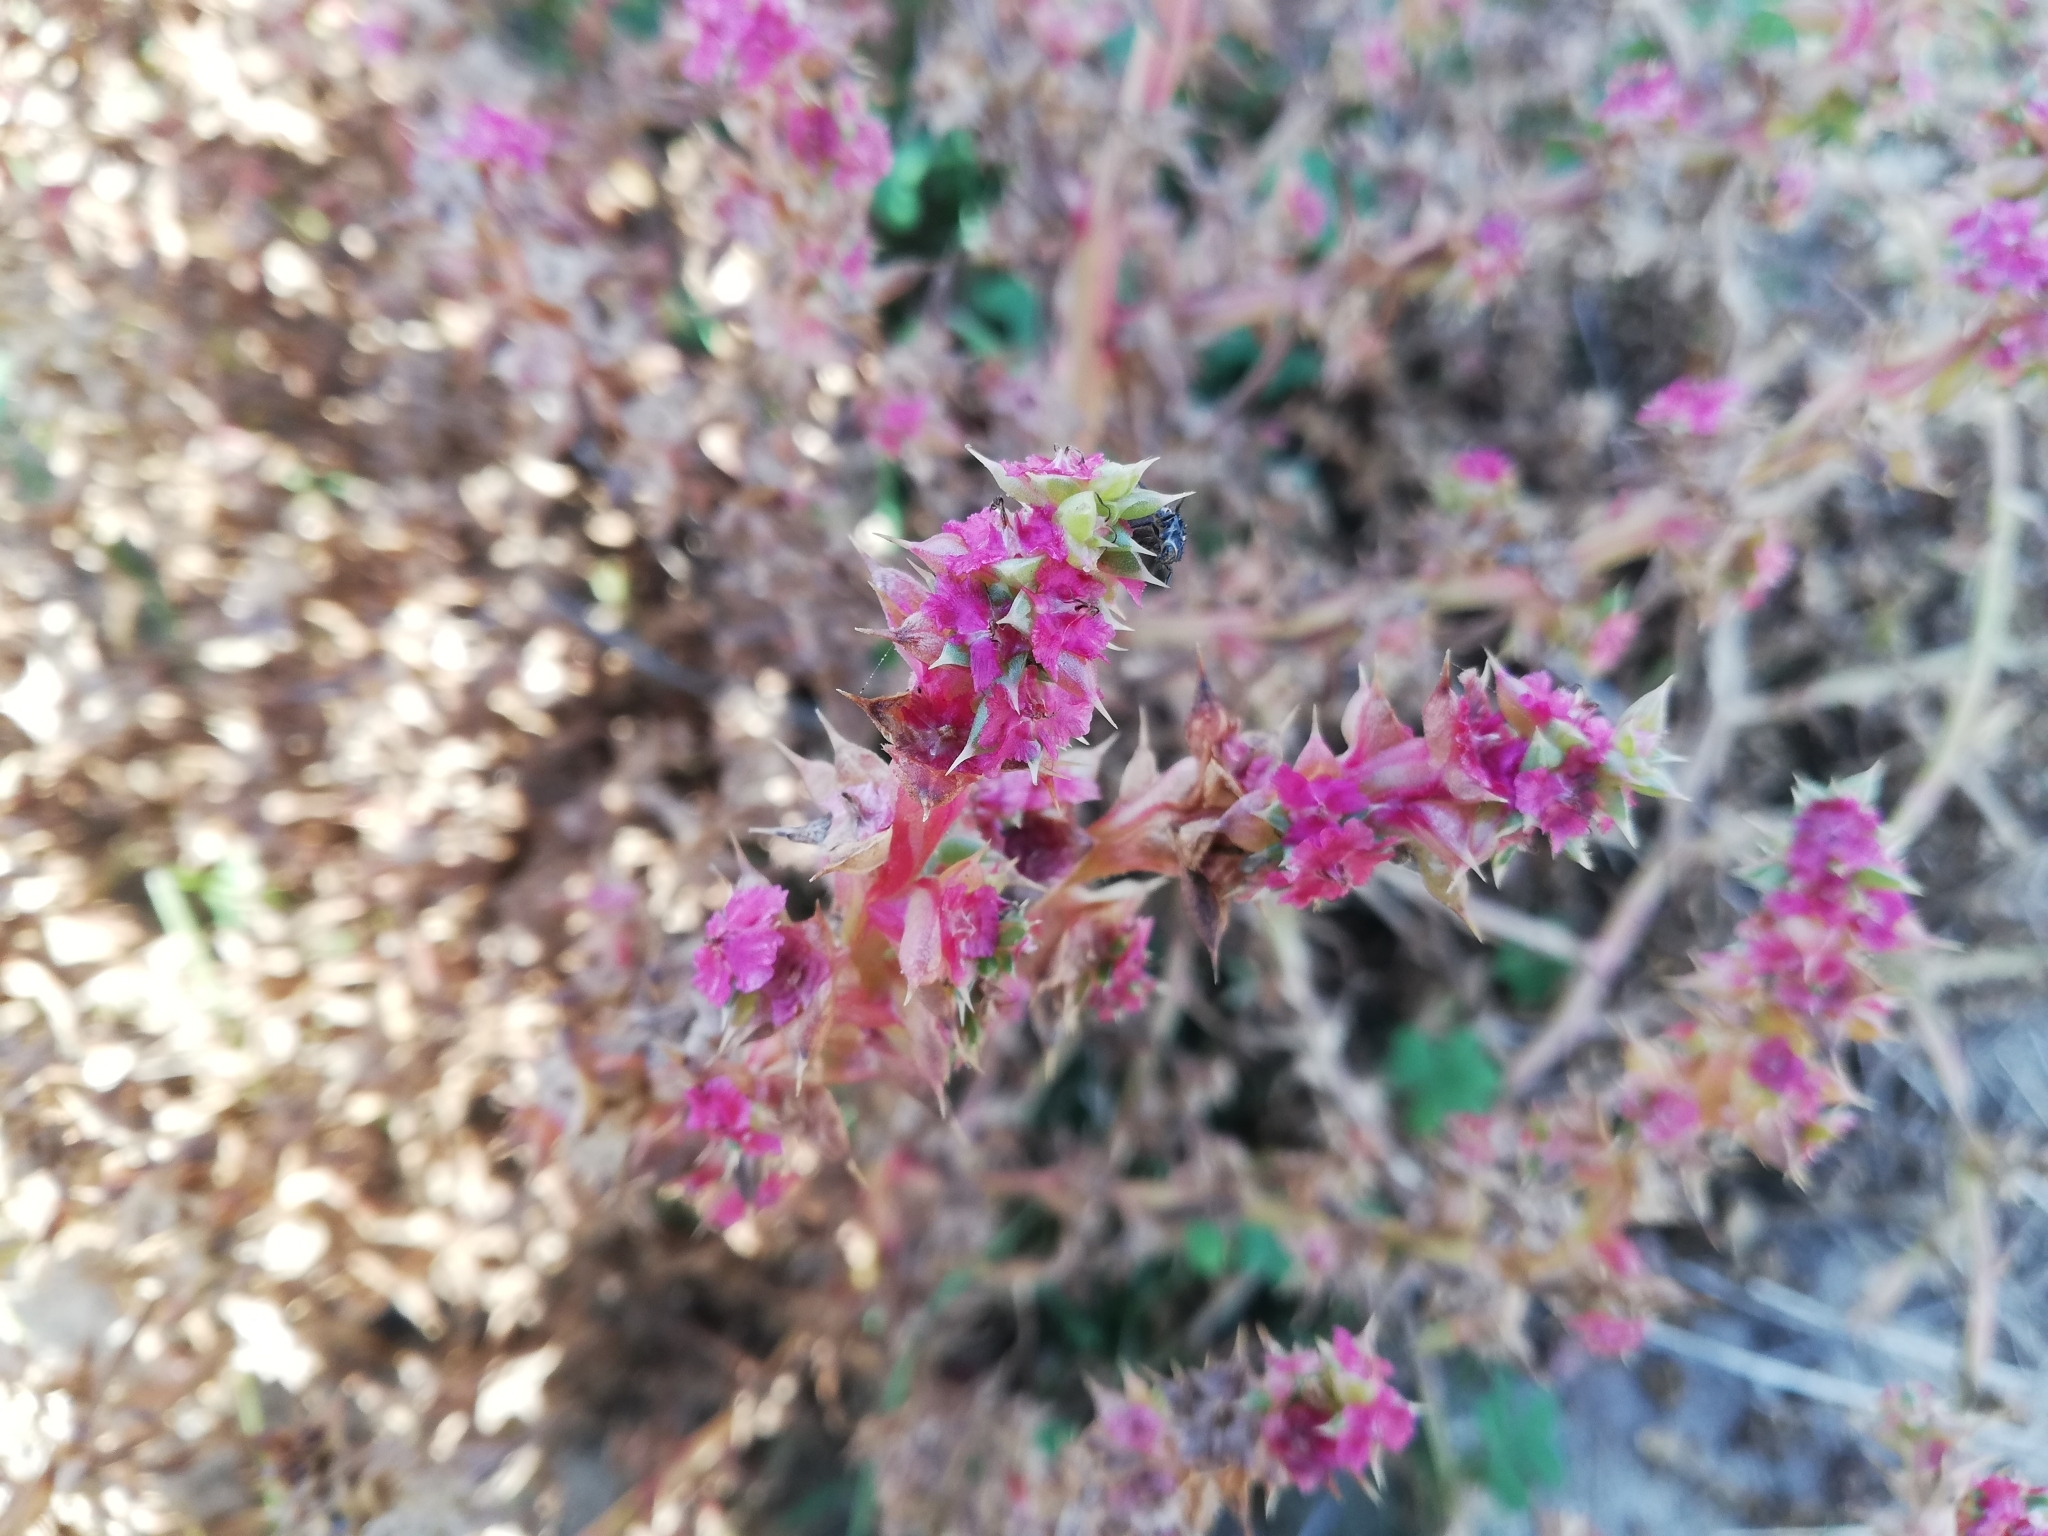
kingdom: Plantae
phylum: Tracheophyta
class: Magnoliopsida
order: Caryophyllales
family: Amaranthaceae
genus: Salsola
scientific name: Salsola tragus
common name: Prickly russian thistle
